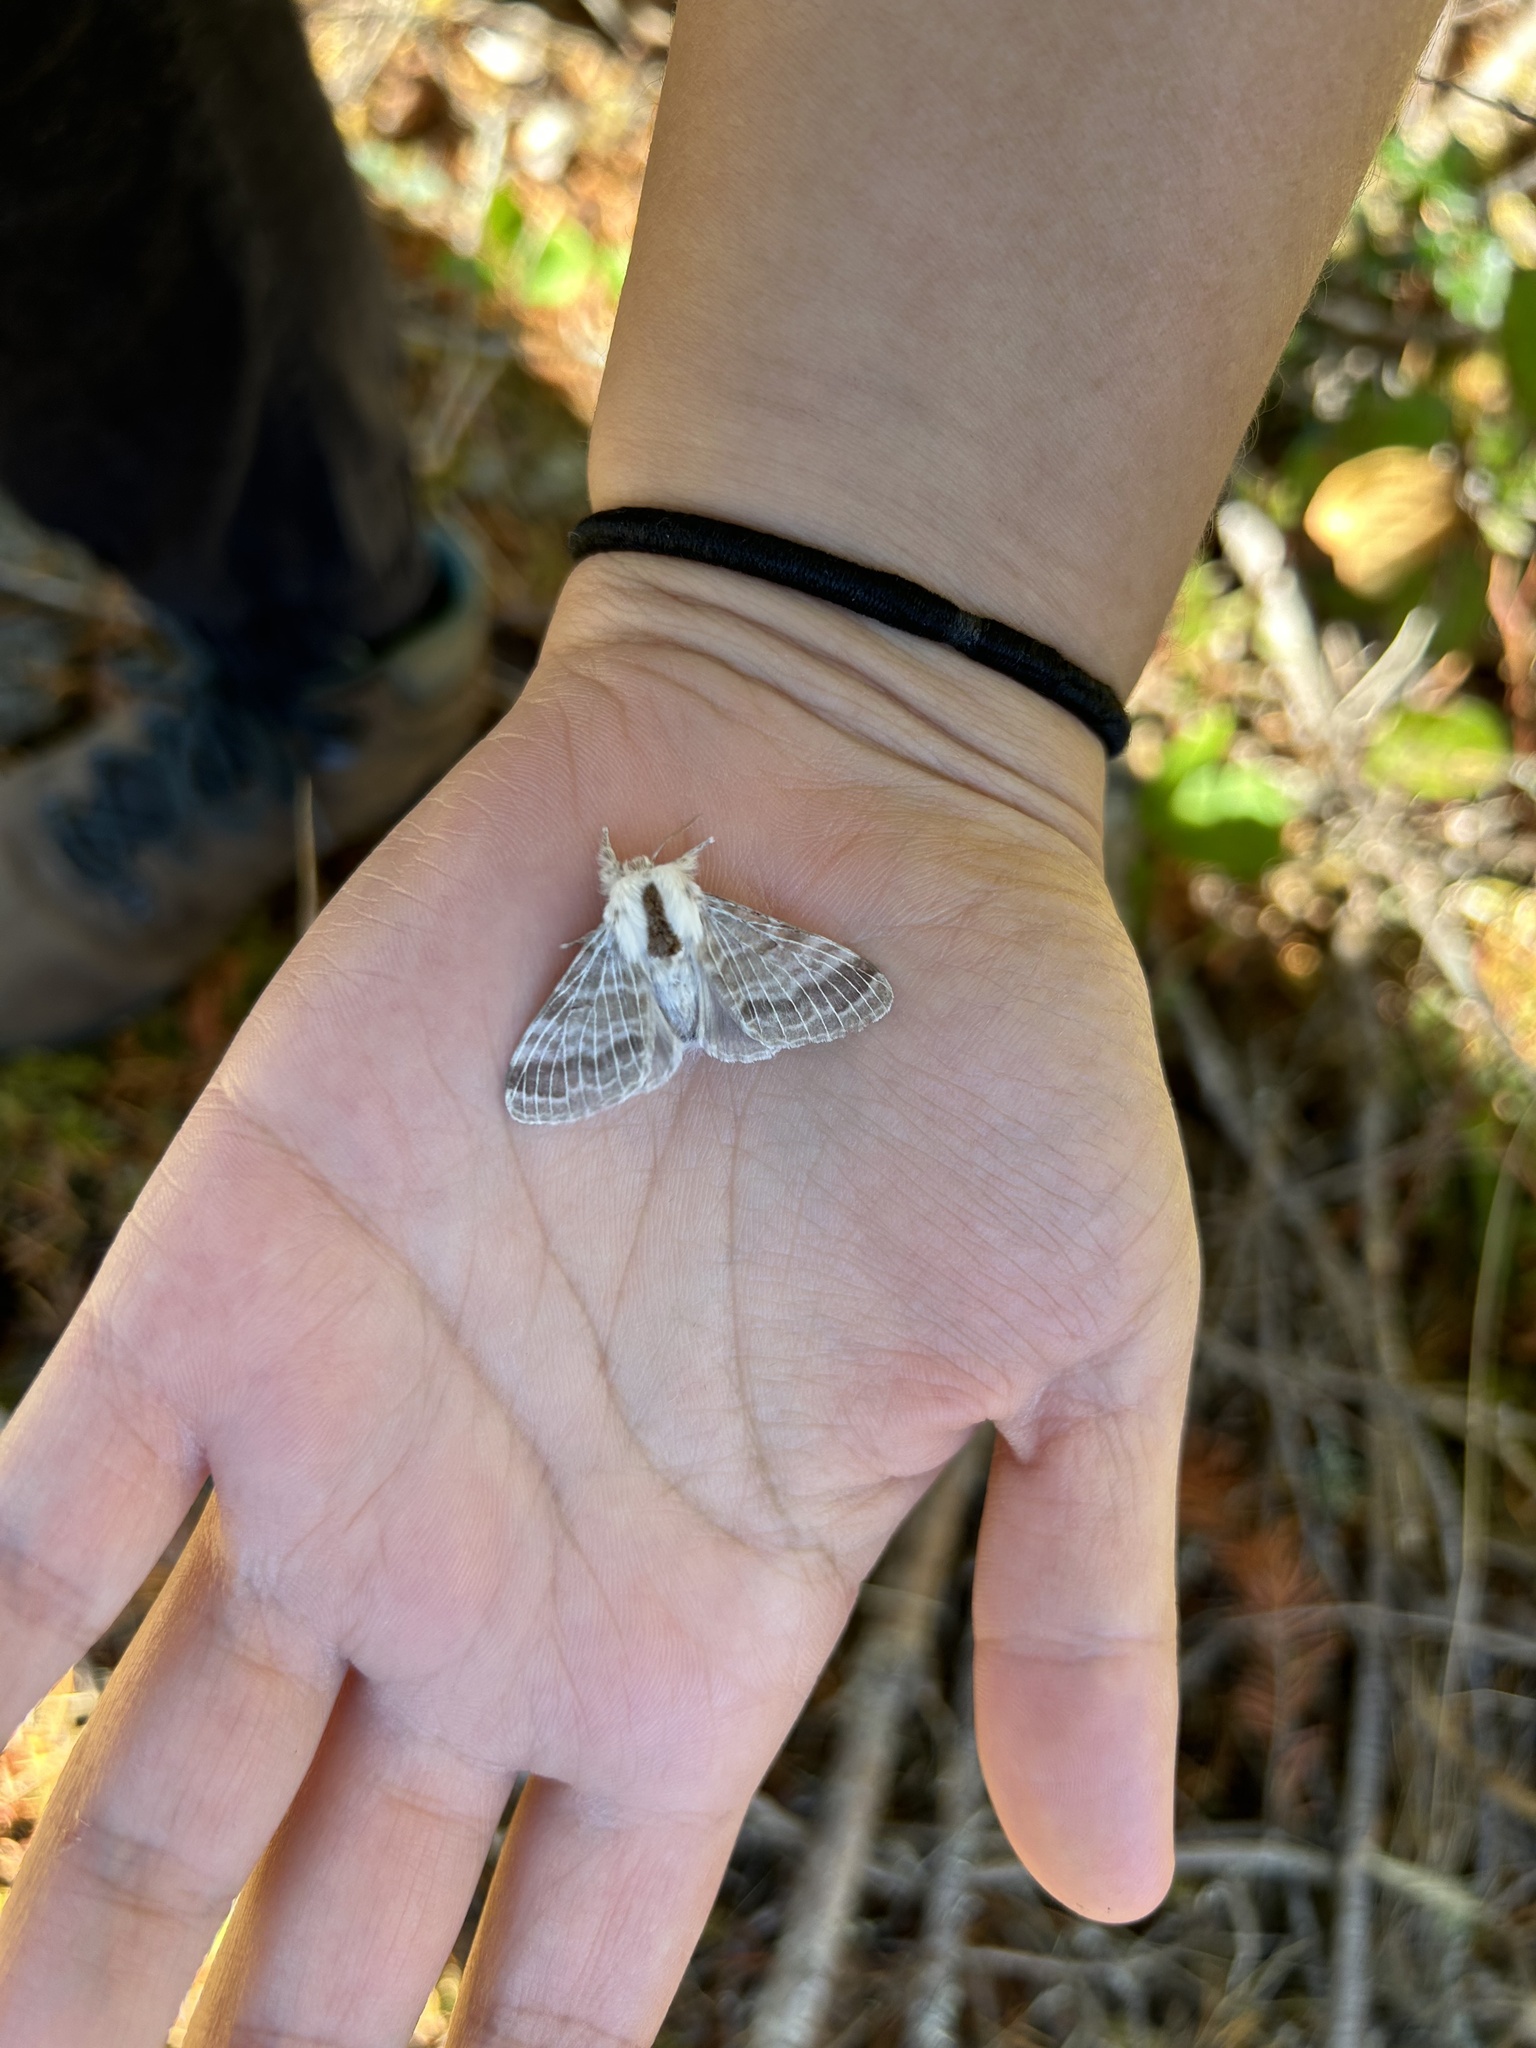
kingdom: Animalia
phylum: Arthropoda
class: Insecta
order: Lepidoptera
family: Lasiocampidae
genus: Tolype
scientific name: Tolype distincta
